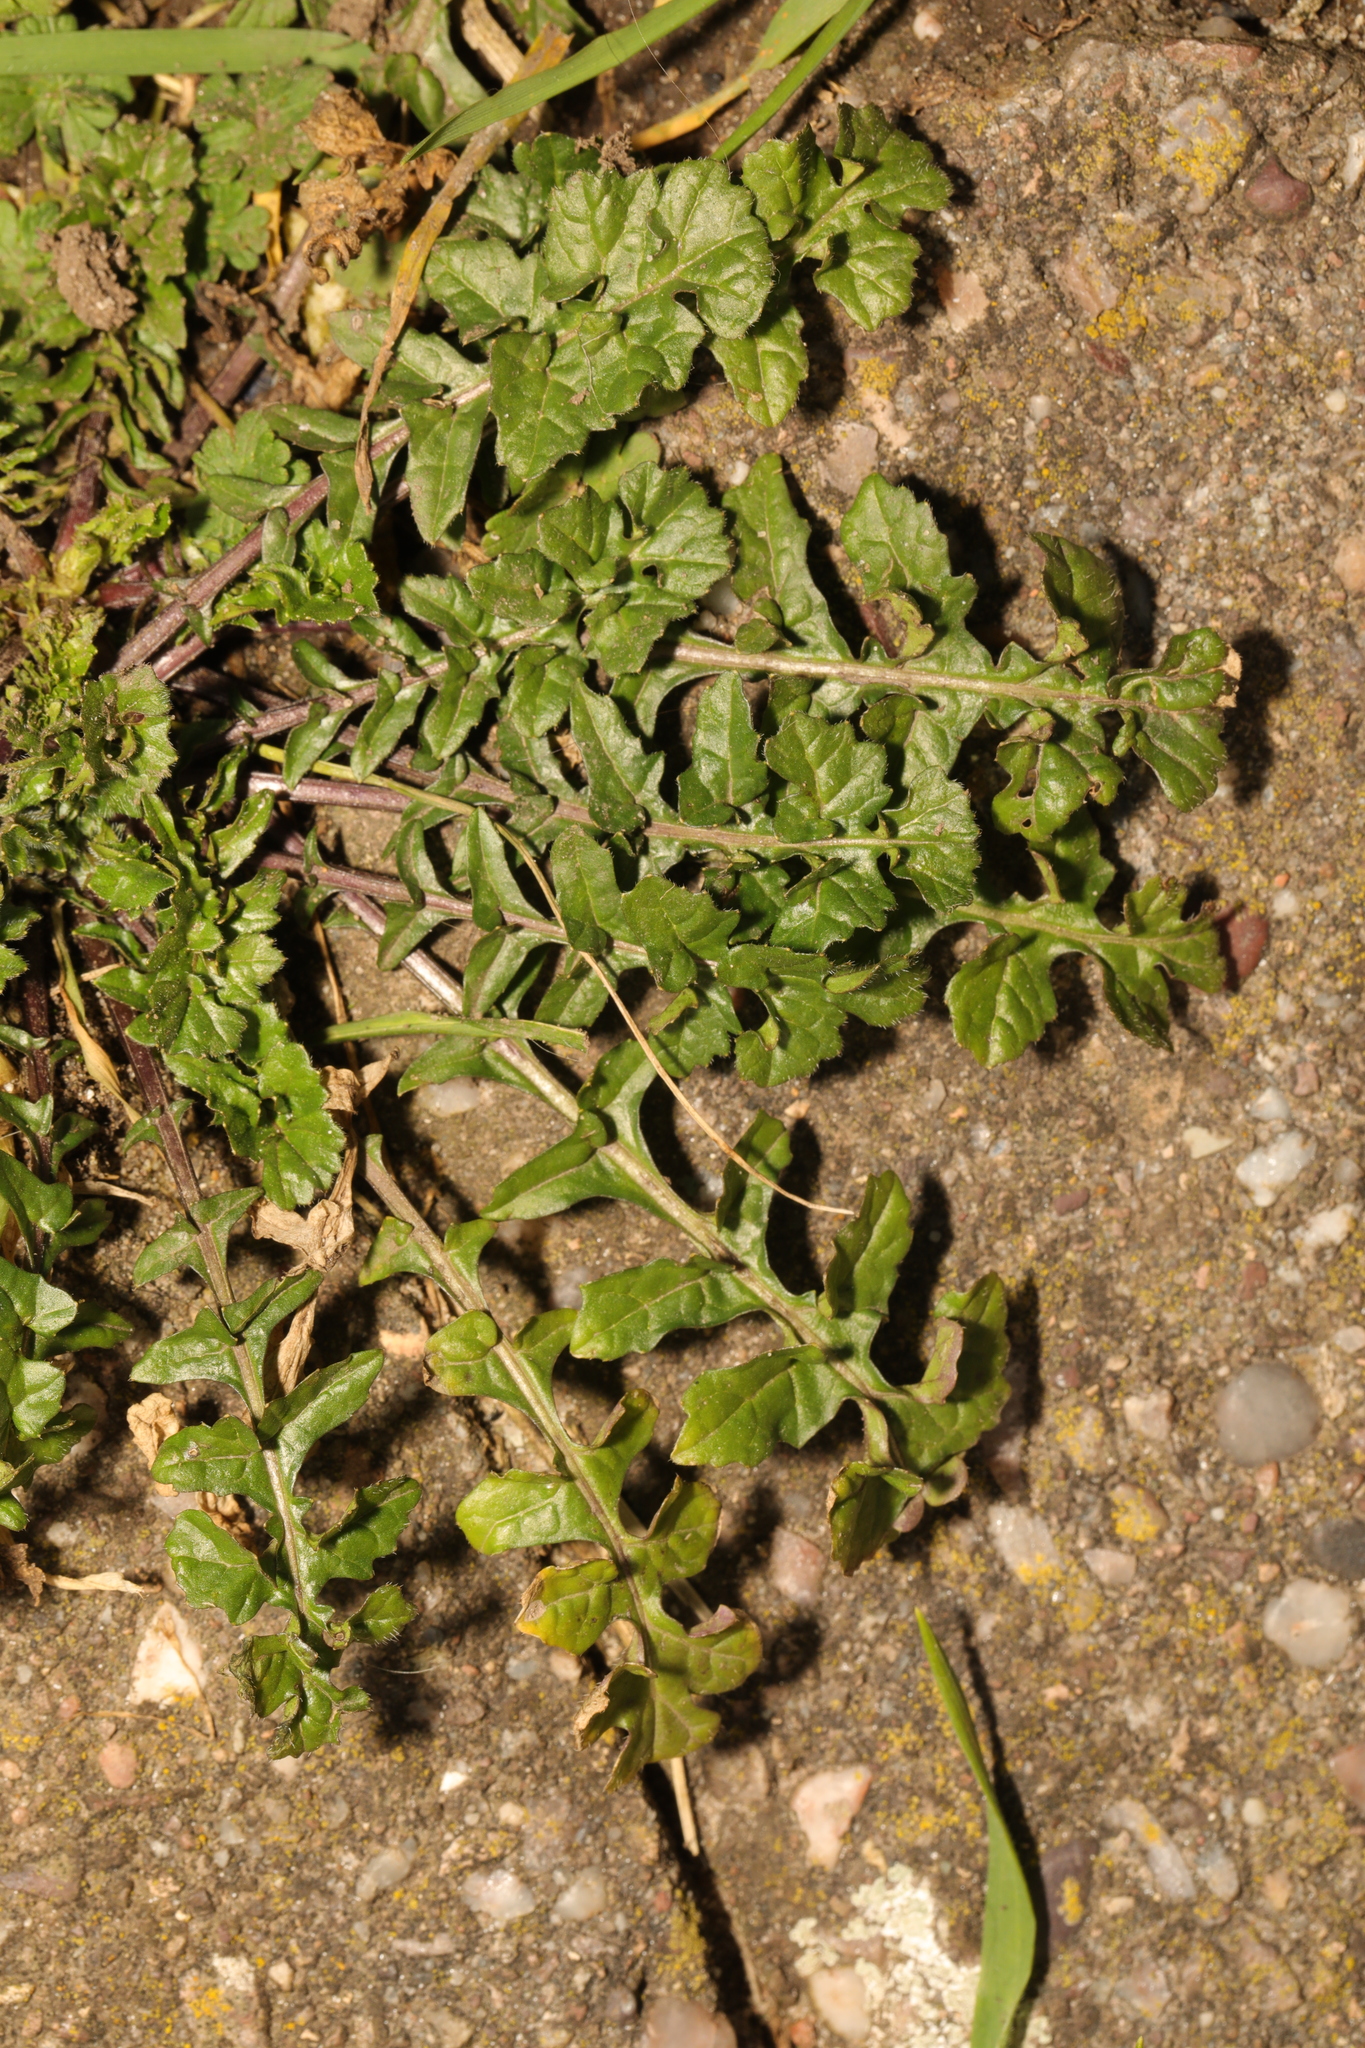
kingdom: Plantae
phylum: Tracheophyta
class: Magnoliopsida
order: Brassicales
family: Brassicaceae
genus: Sisymbrium
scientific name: Sisymbrium officinale
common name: Hedge mustard
